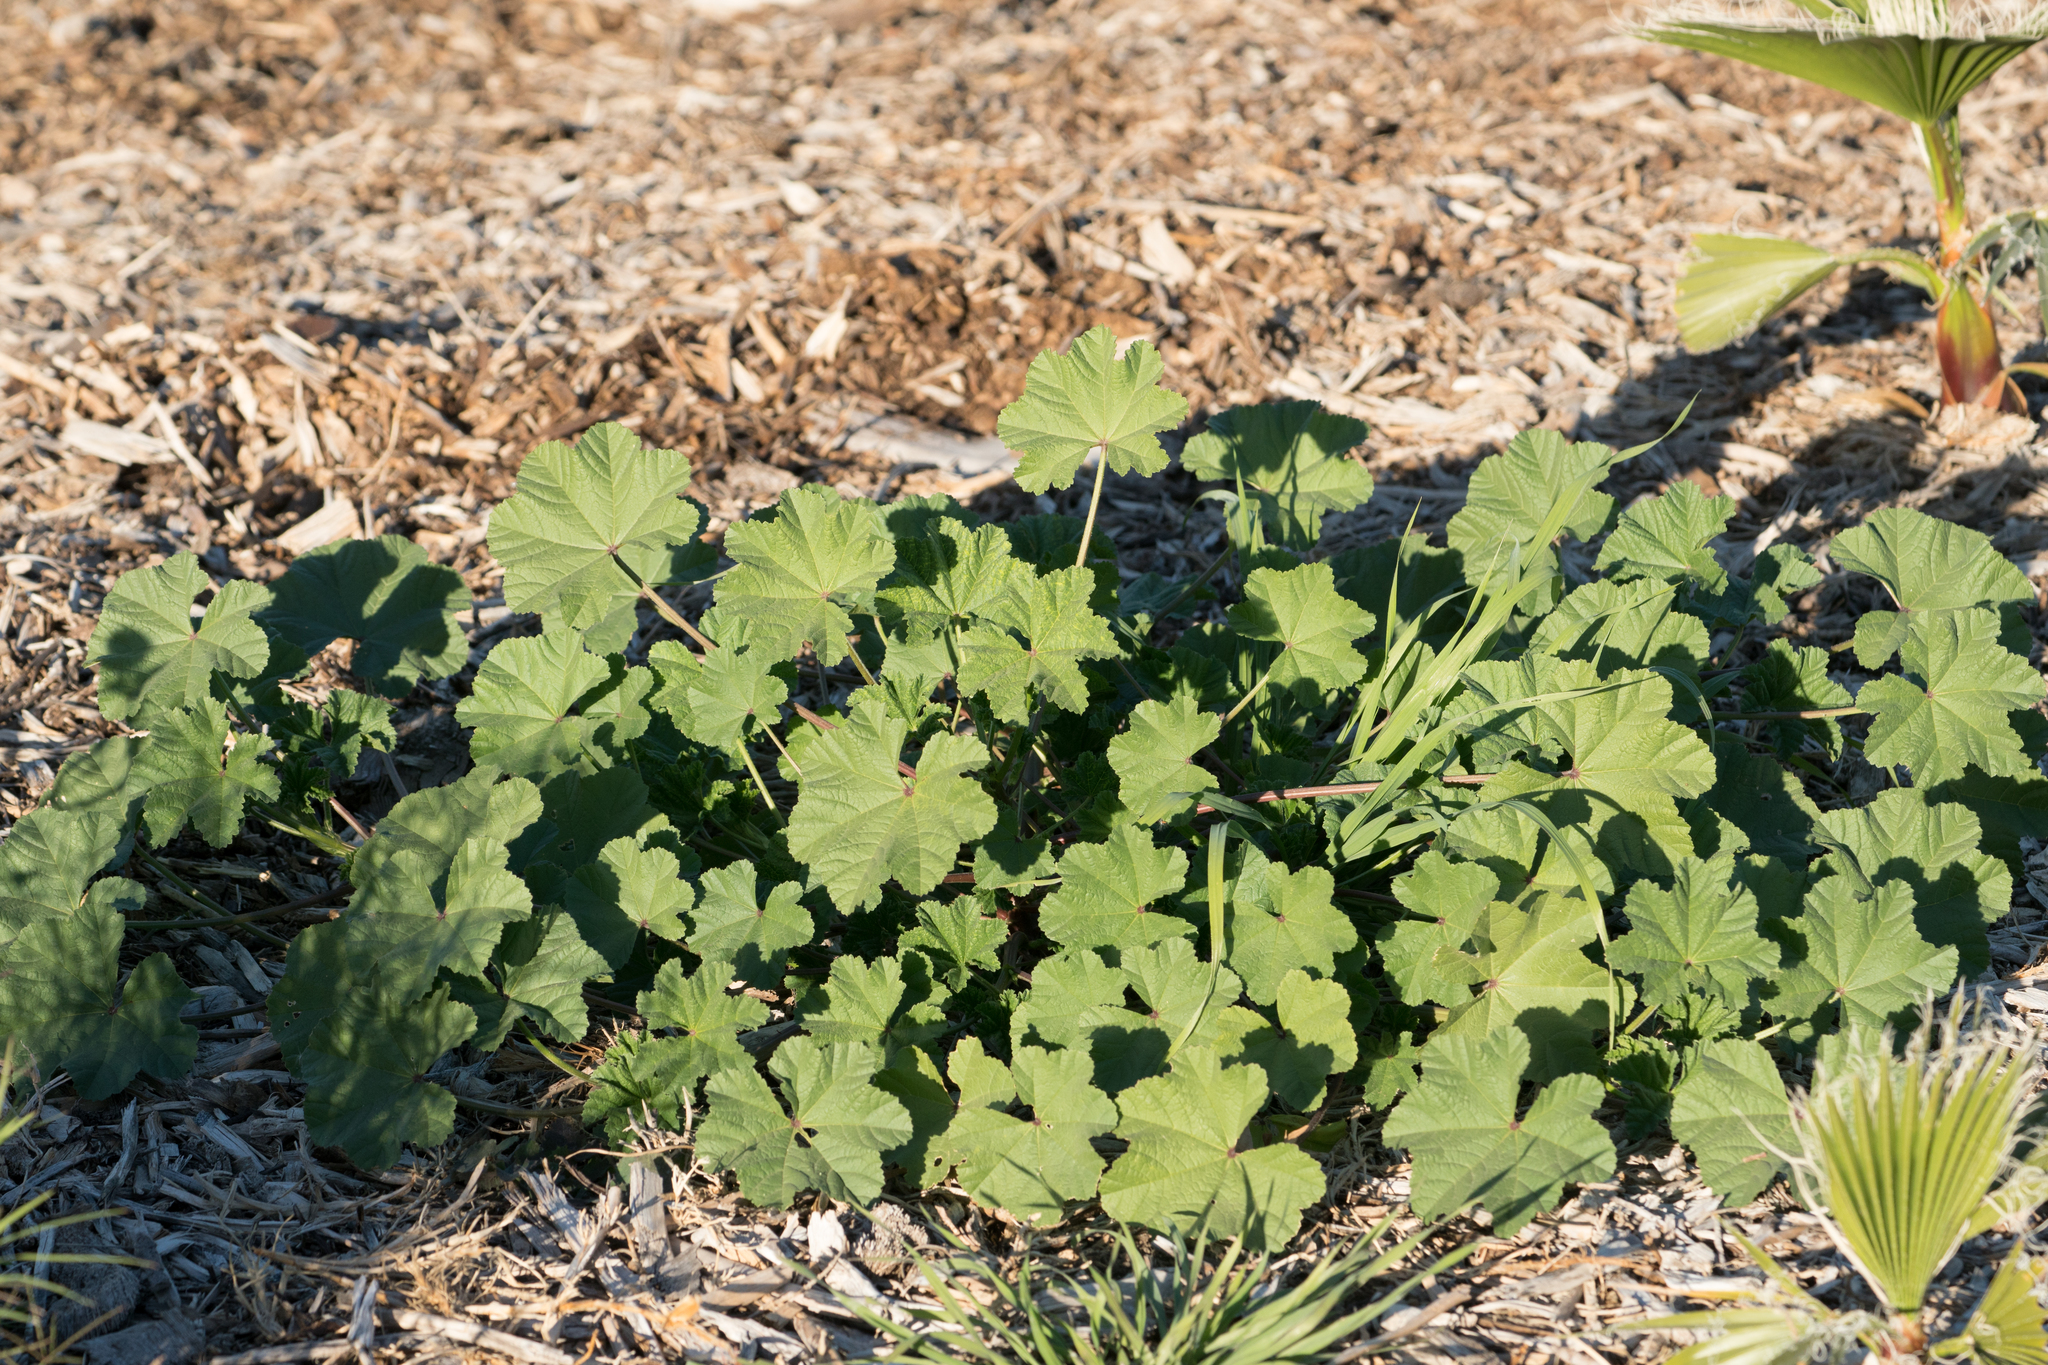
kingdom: Plantae
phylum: Tracheophyta
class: Magnoliopsida
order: Malvales
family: Malvaceae
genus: Malva
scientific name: Malva
